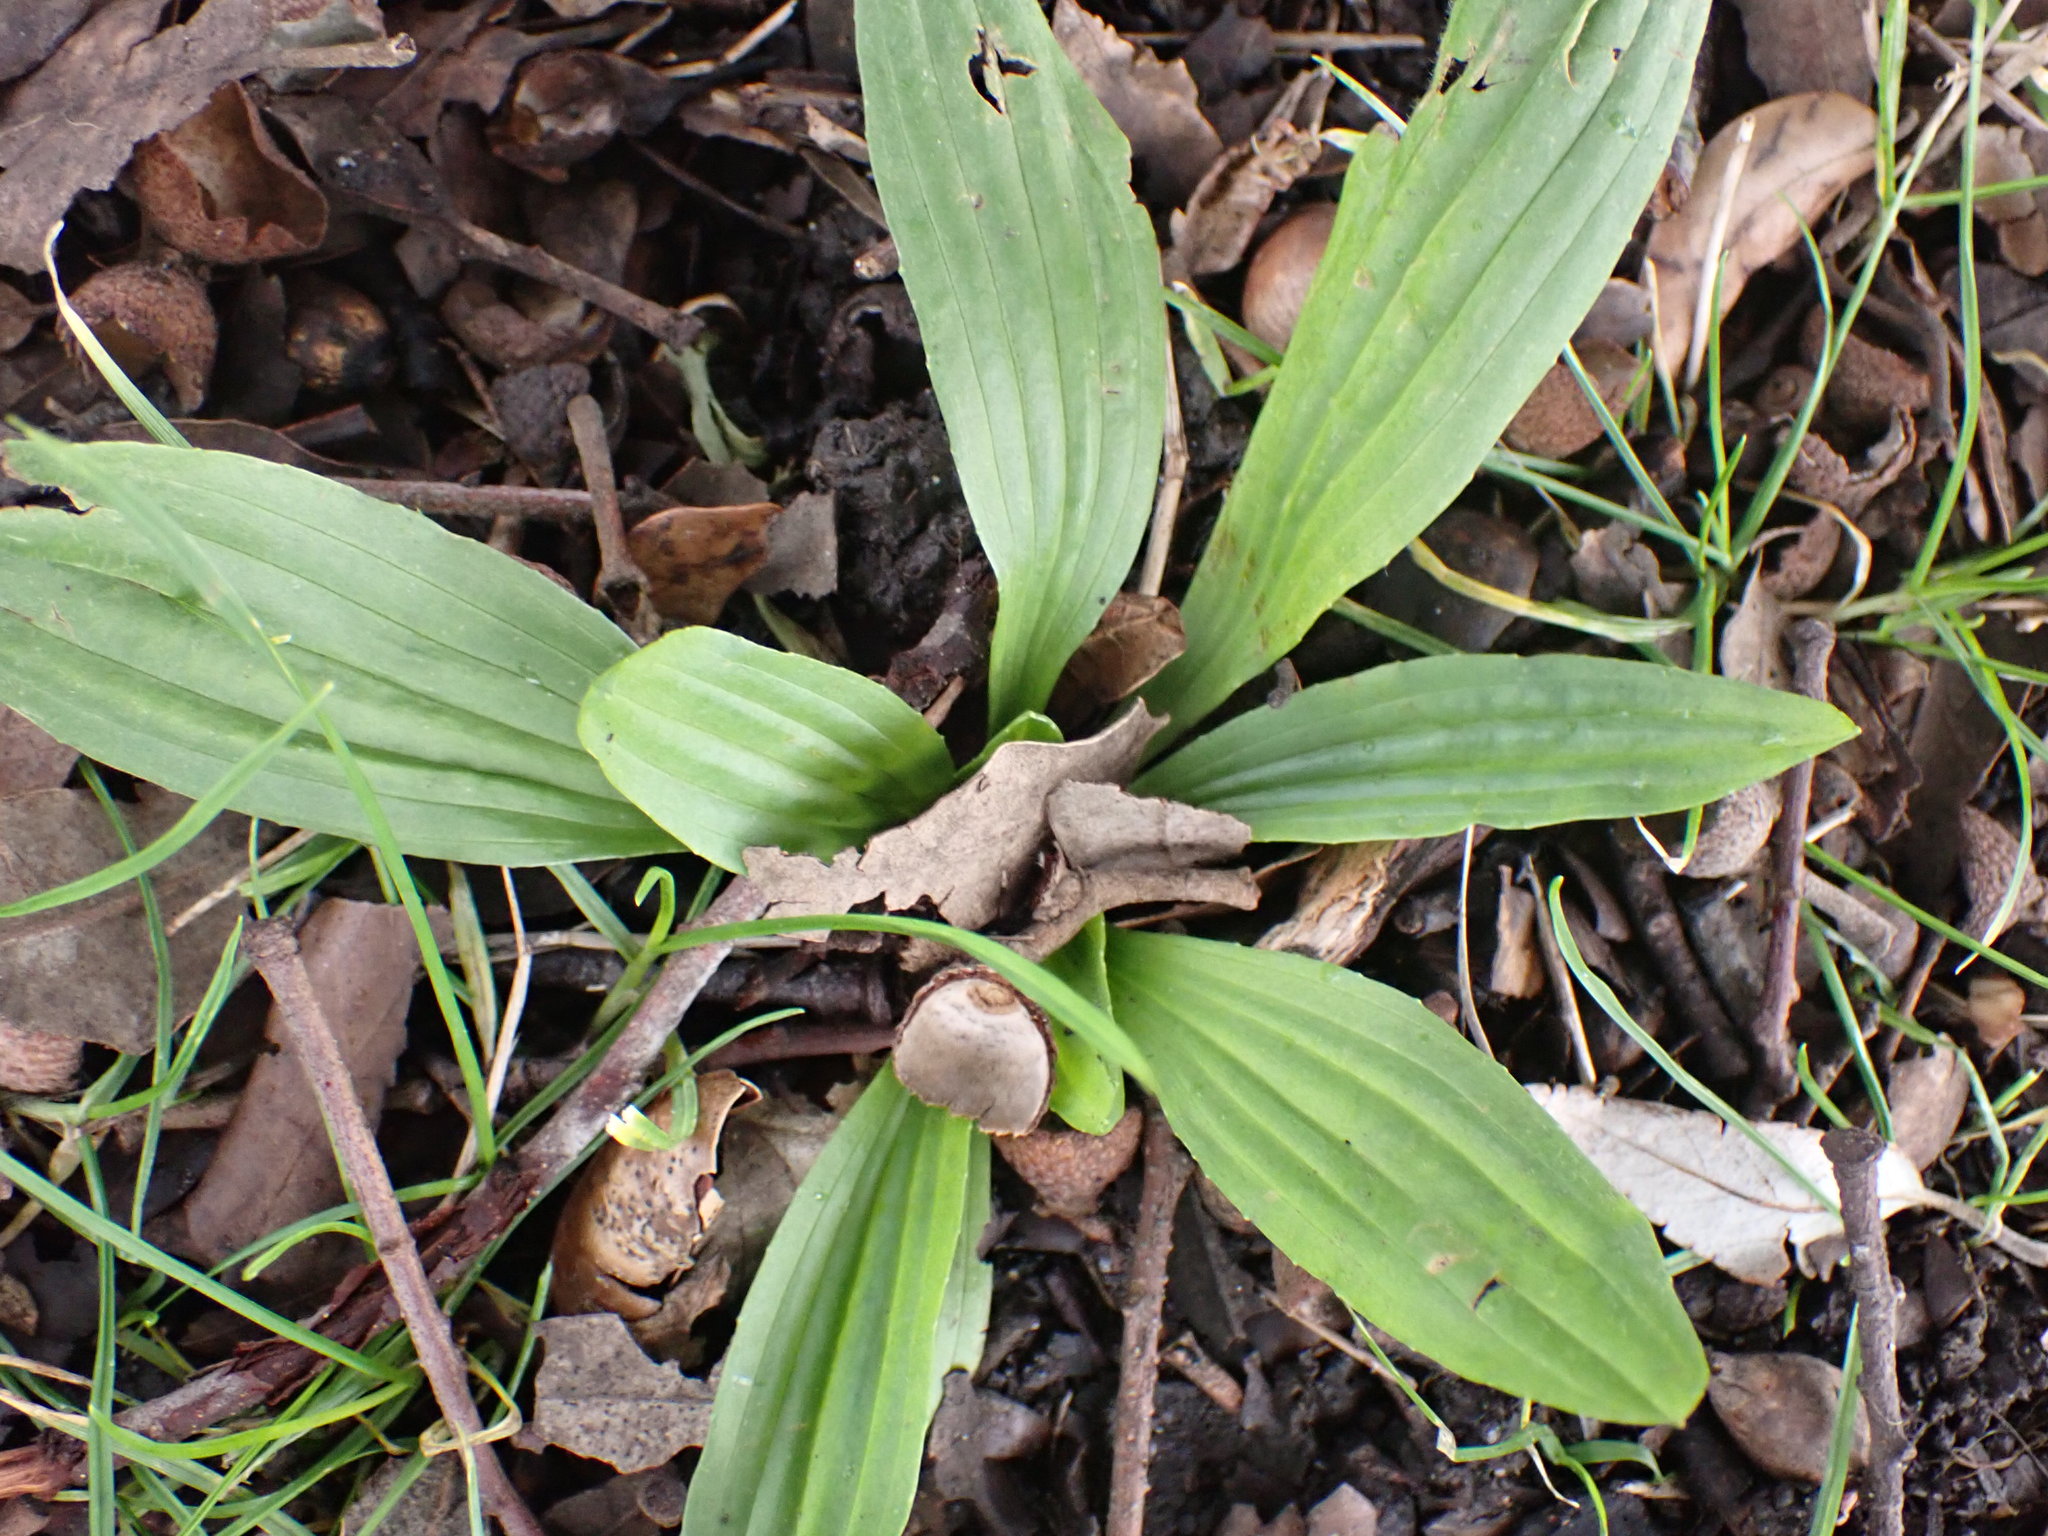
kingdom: Plantae
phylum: Tracheophyta
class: Magnoliopsida
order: Lamiales
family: Plantaginaceae
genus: Plantago
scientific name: Plantago lanceolata
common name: Ribwort plantain
